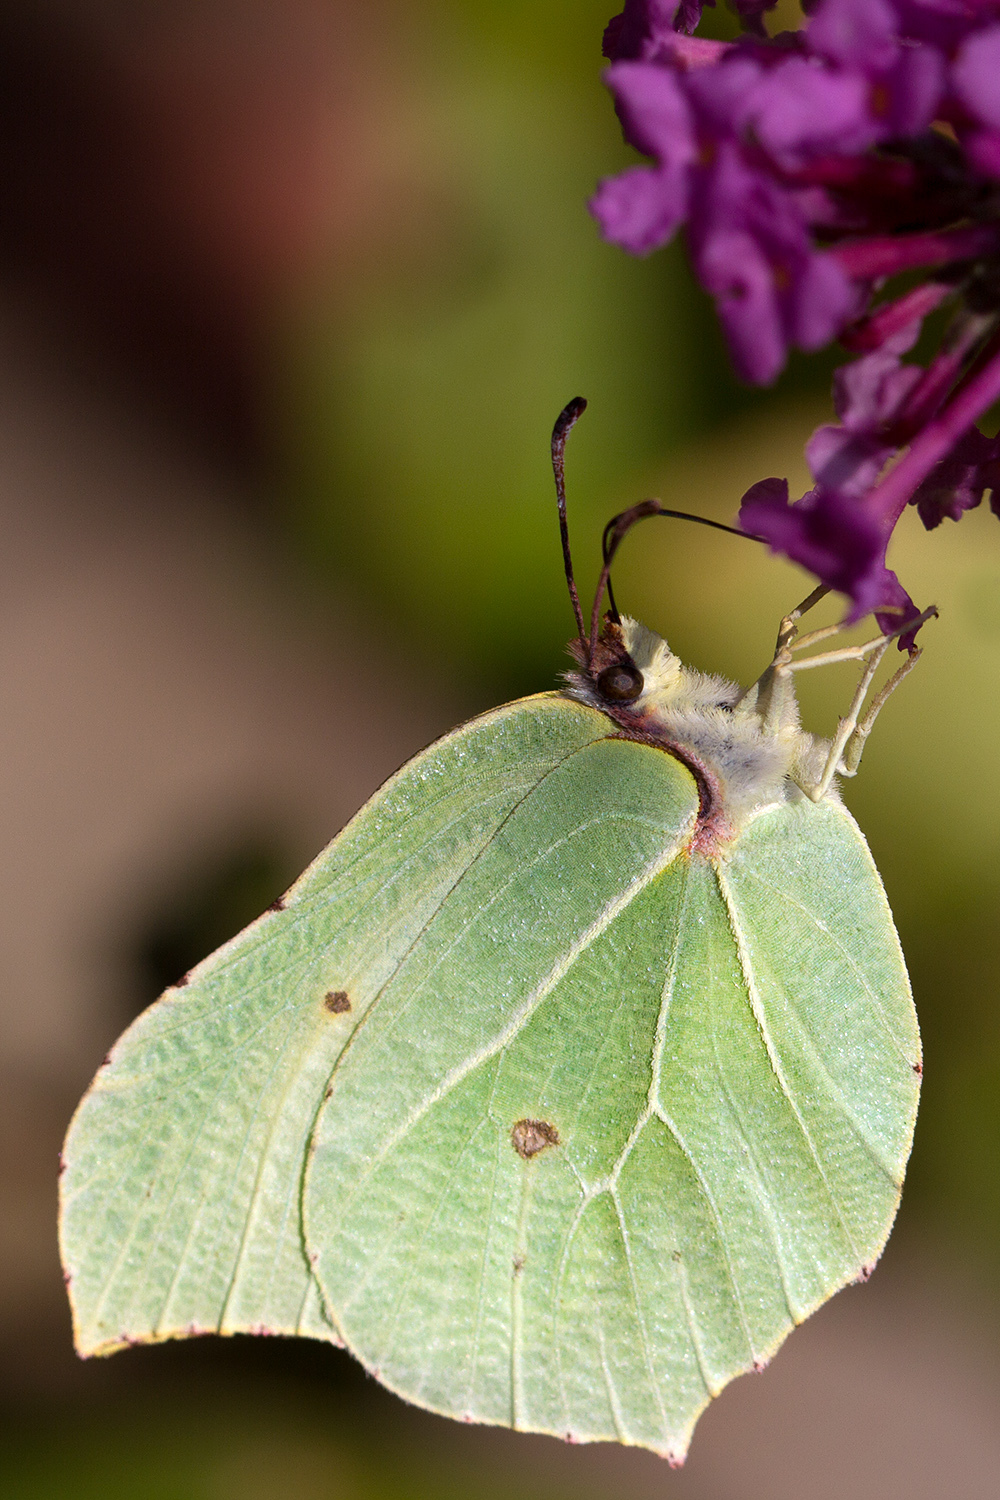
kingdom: Animalia
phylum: Arthropoda
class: Insecta
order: Lepidoptera
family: Pieridae
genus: Gonepteryx
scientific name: Gonepteryx rhamni
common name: Brimstone
